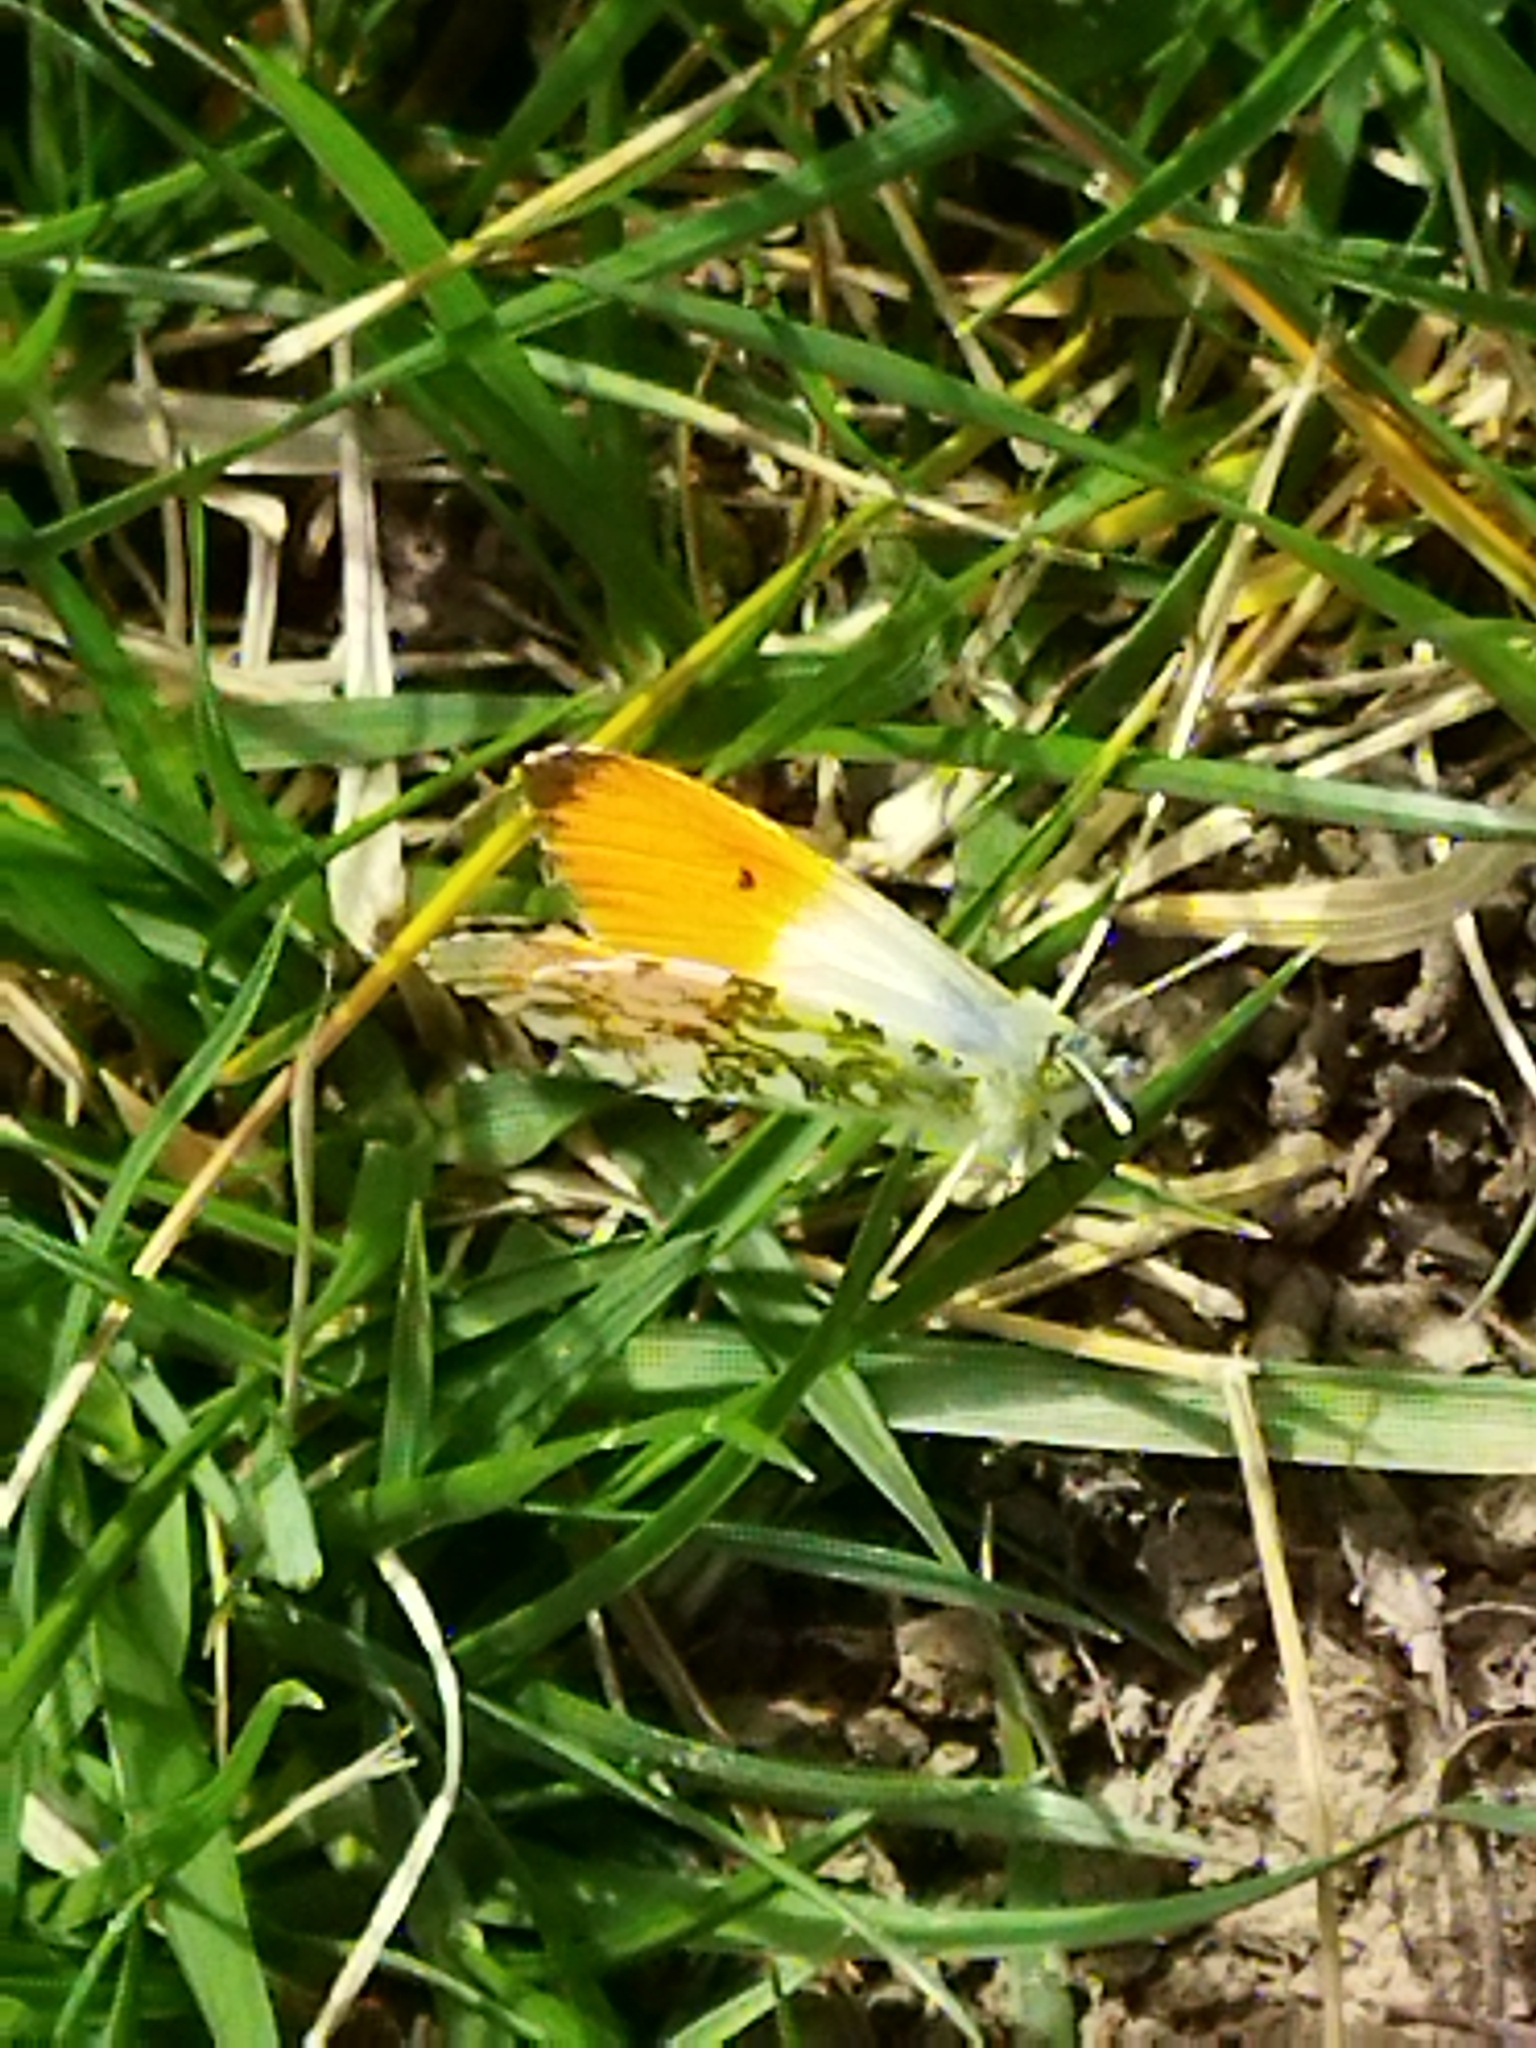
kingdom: Animalia
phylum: Arthropoda
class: Insecta
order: Lepidoptera
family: Pieridae
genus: Anthocharis
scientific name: Anthocharis cardamines
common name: Orange-tip
